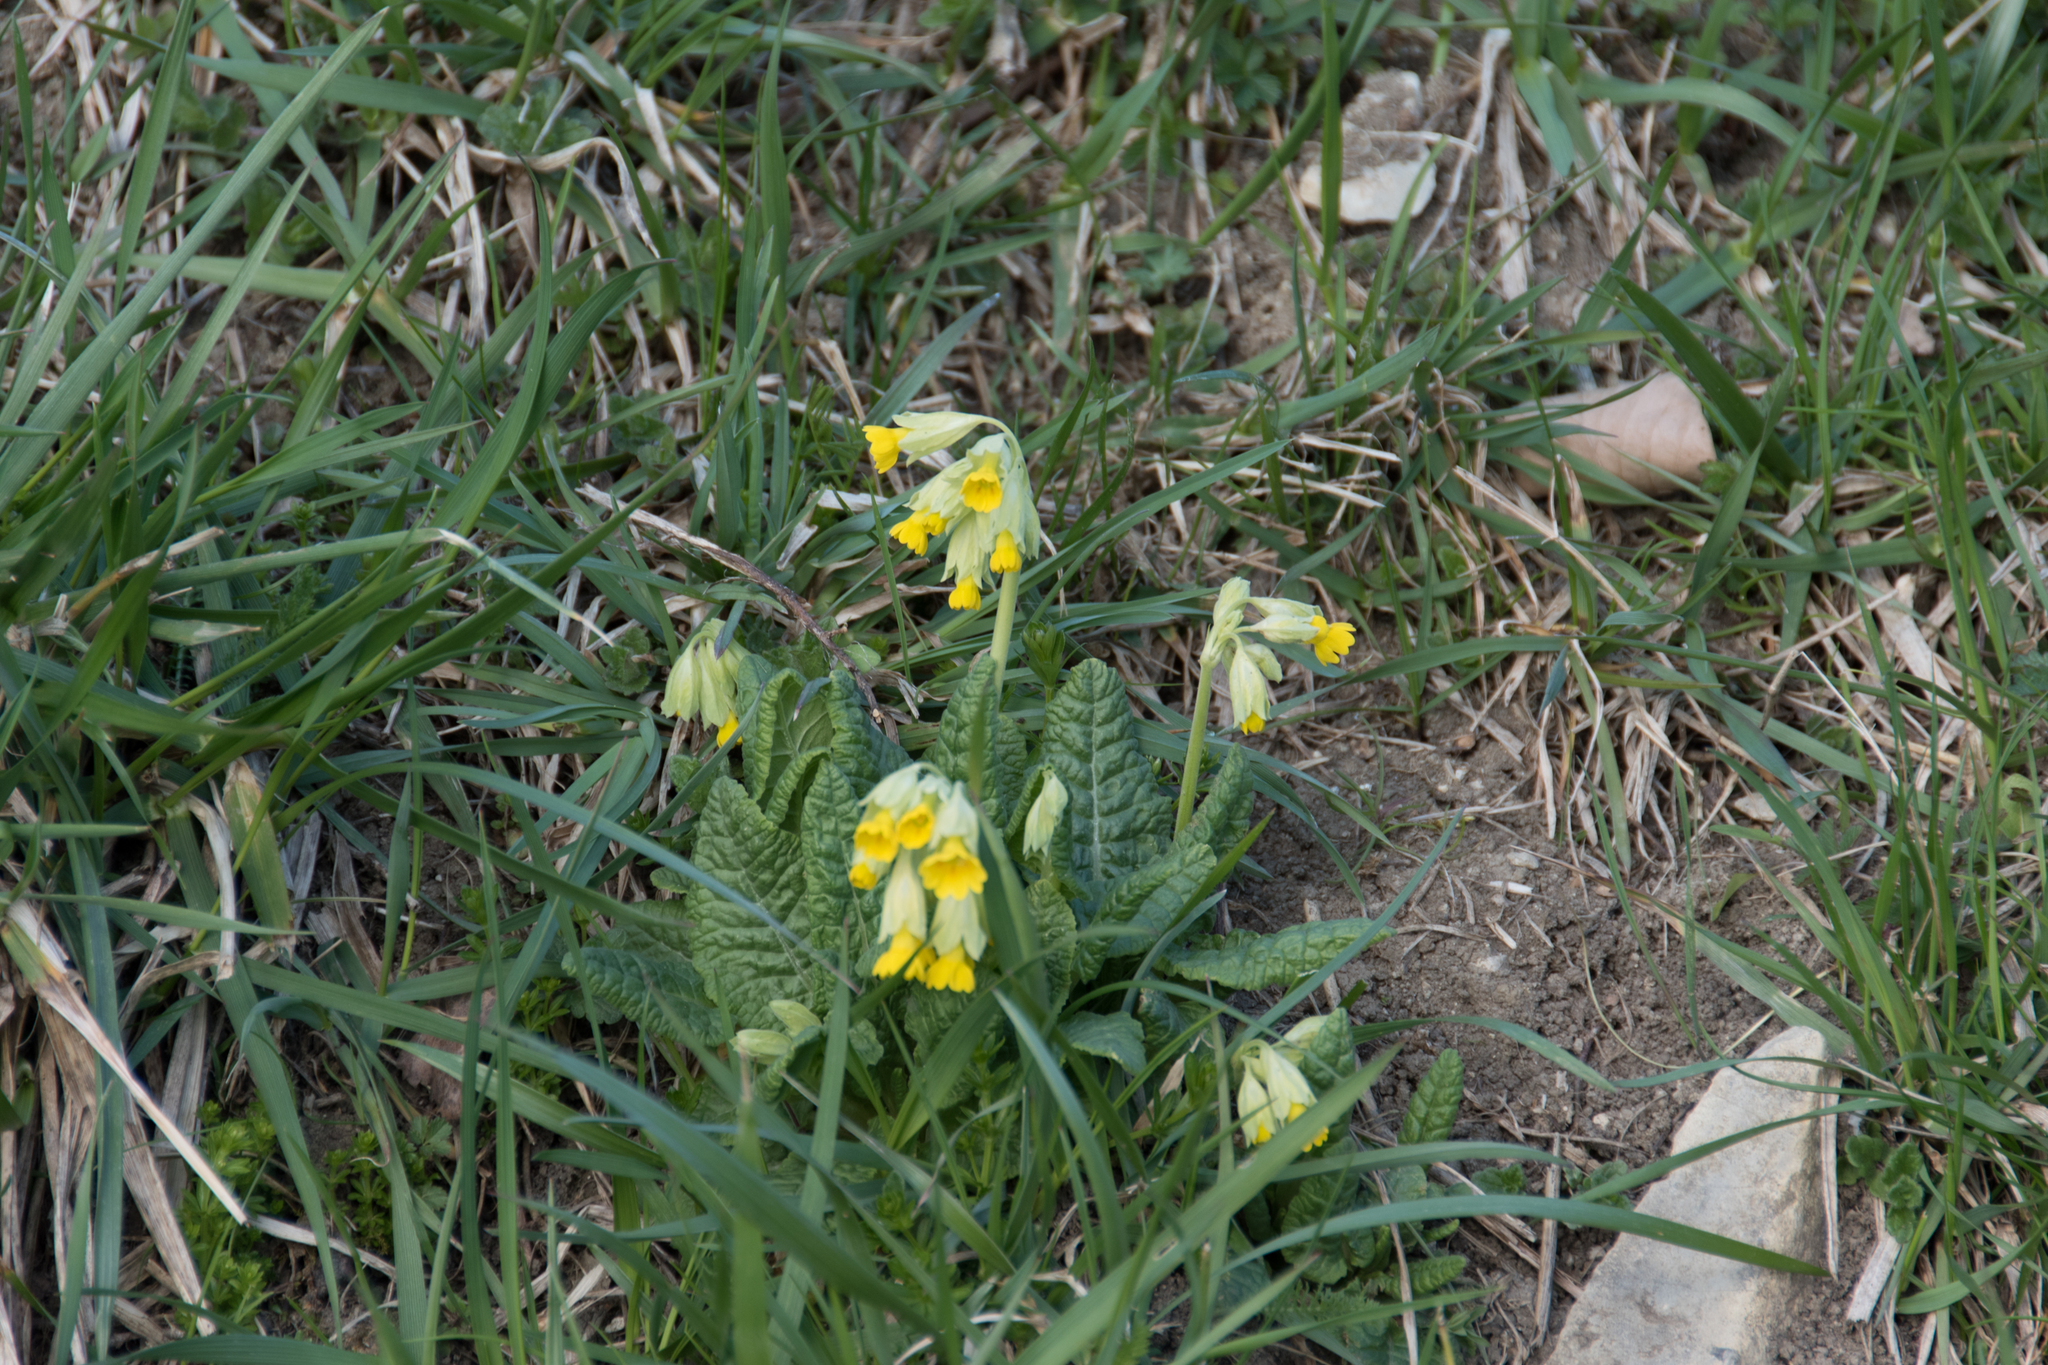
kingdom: Plantae
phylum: Tracheophyta
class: Magnoliopsida
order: Ericales
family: Primulaceae
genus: Primula
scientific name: Primula veris
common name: Cowslip
